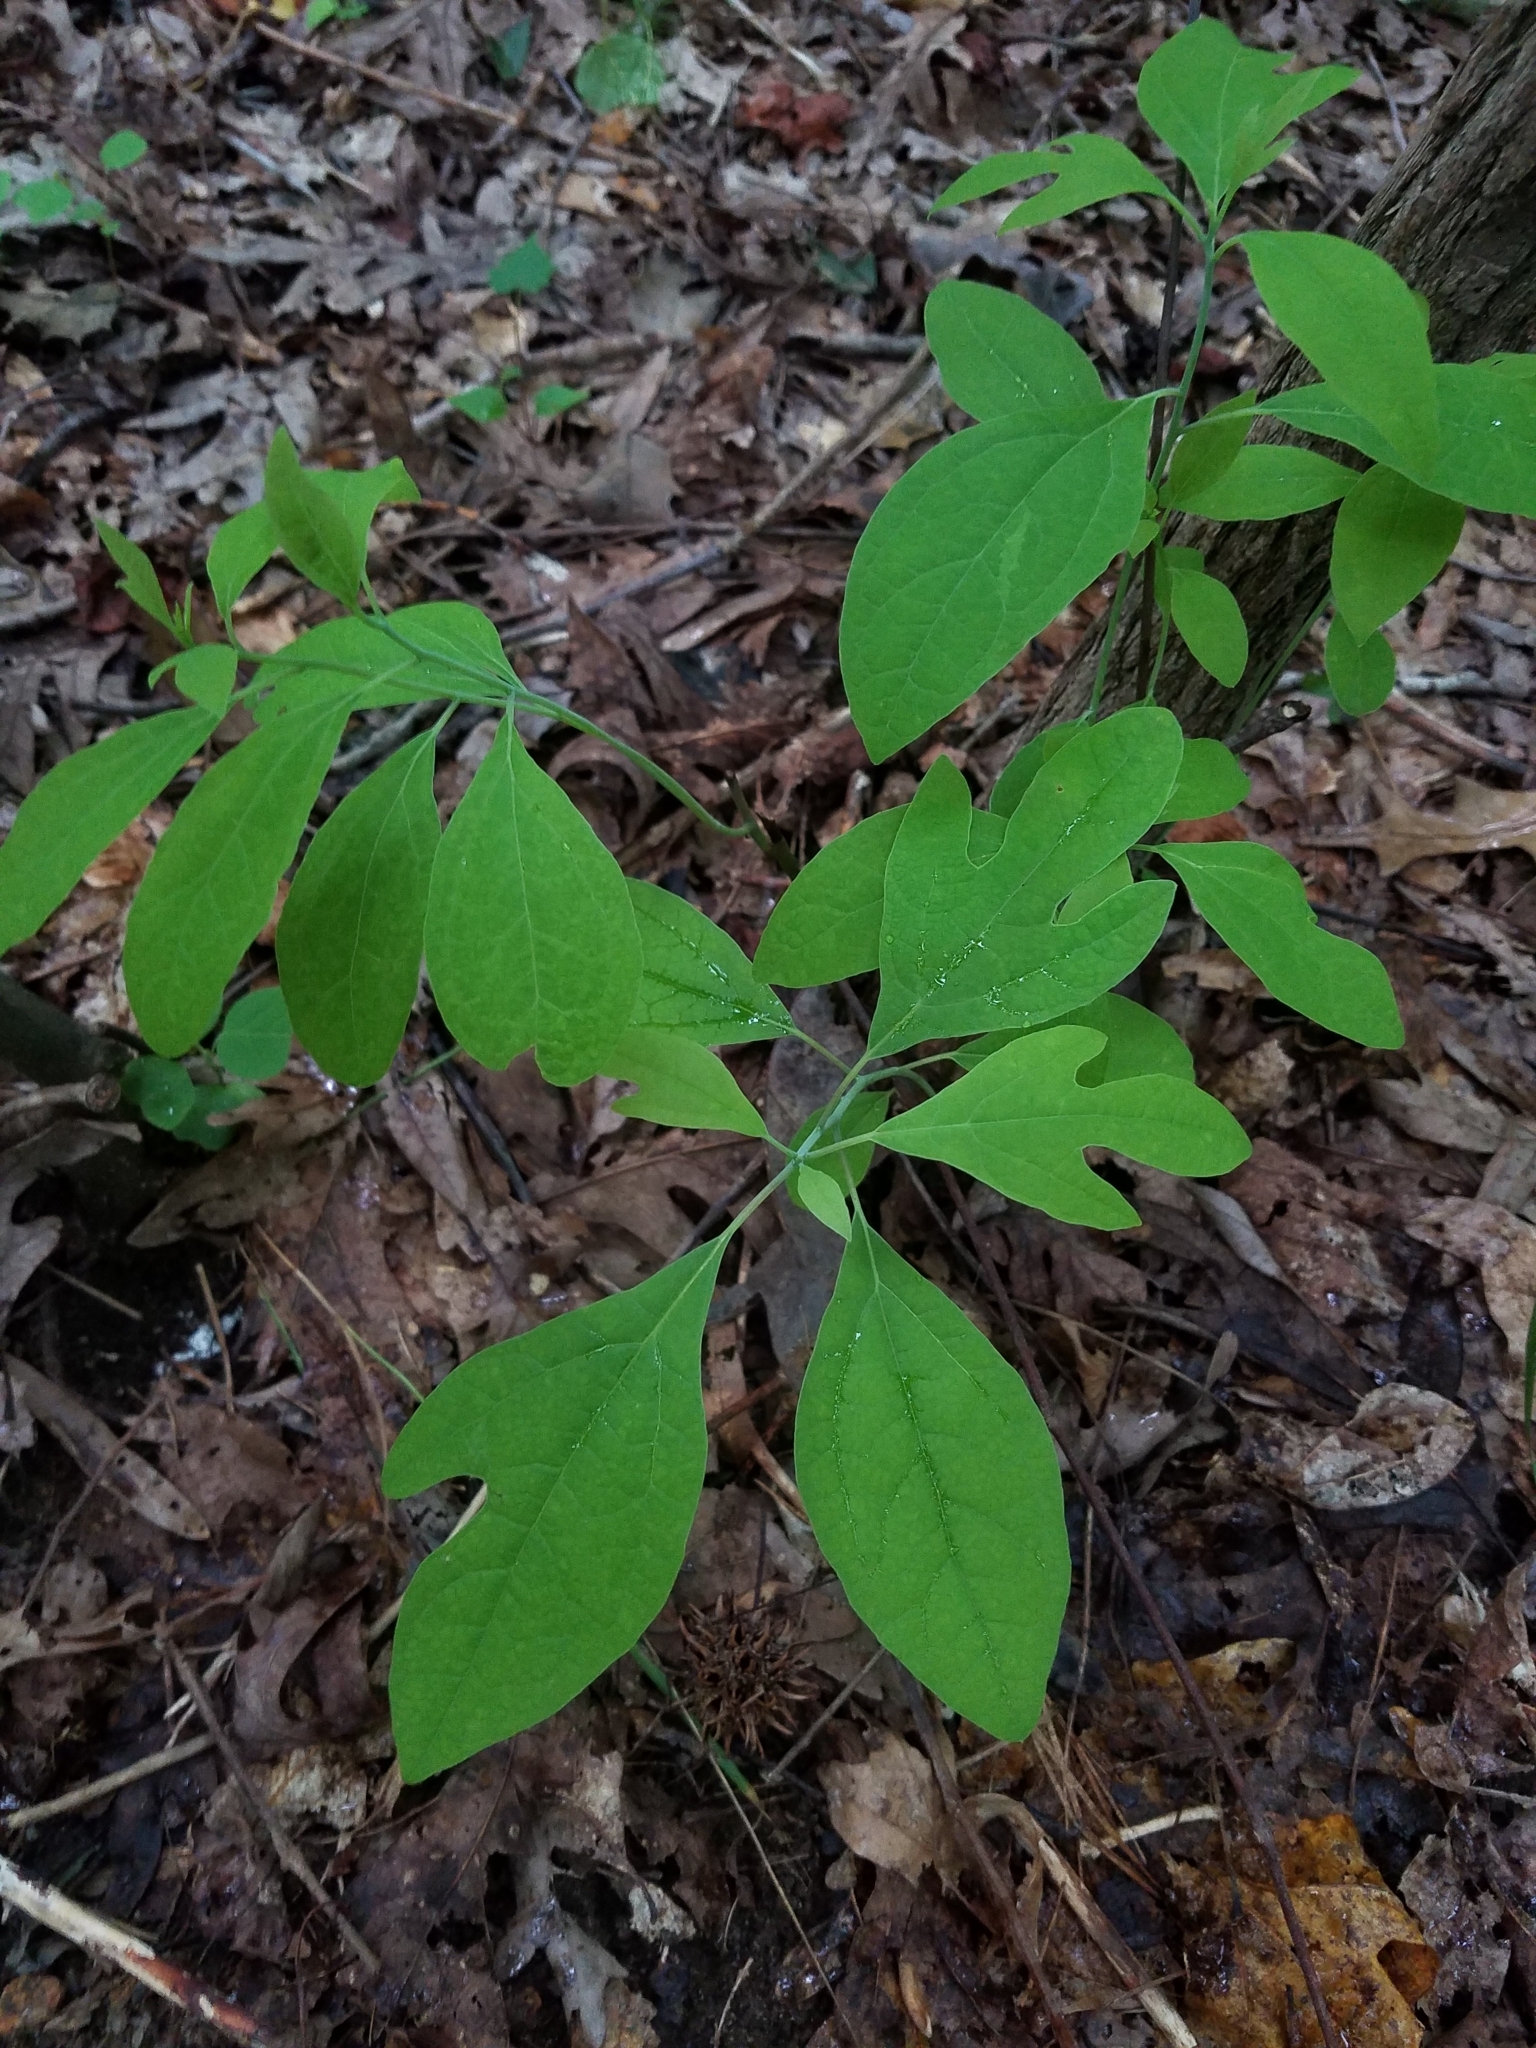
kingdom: Plantae
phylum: Tracheophyta
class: Magnoliopsida
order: Laurales
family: Lauraceae
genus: Sassafras
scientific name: Sassafras albidum
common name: Sassafras
